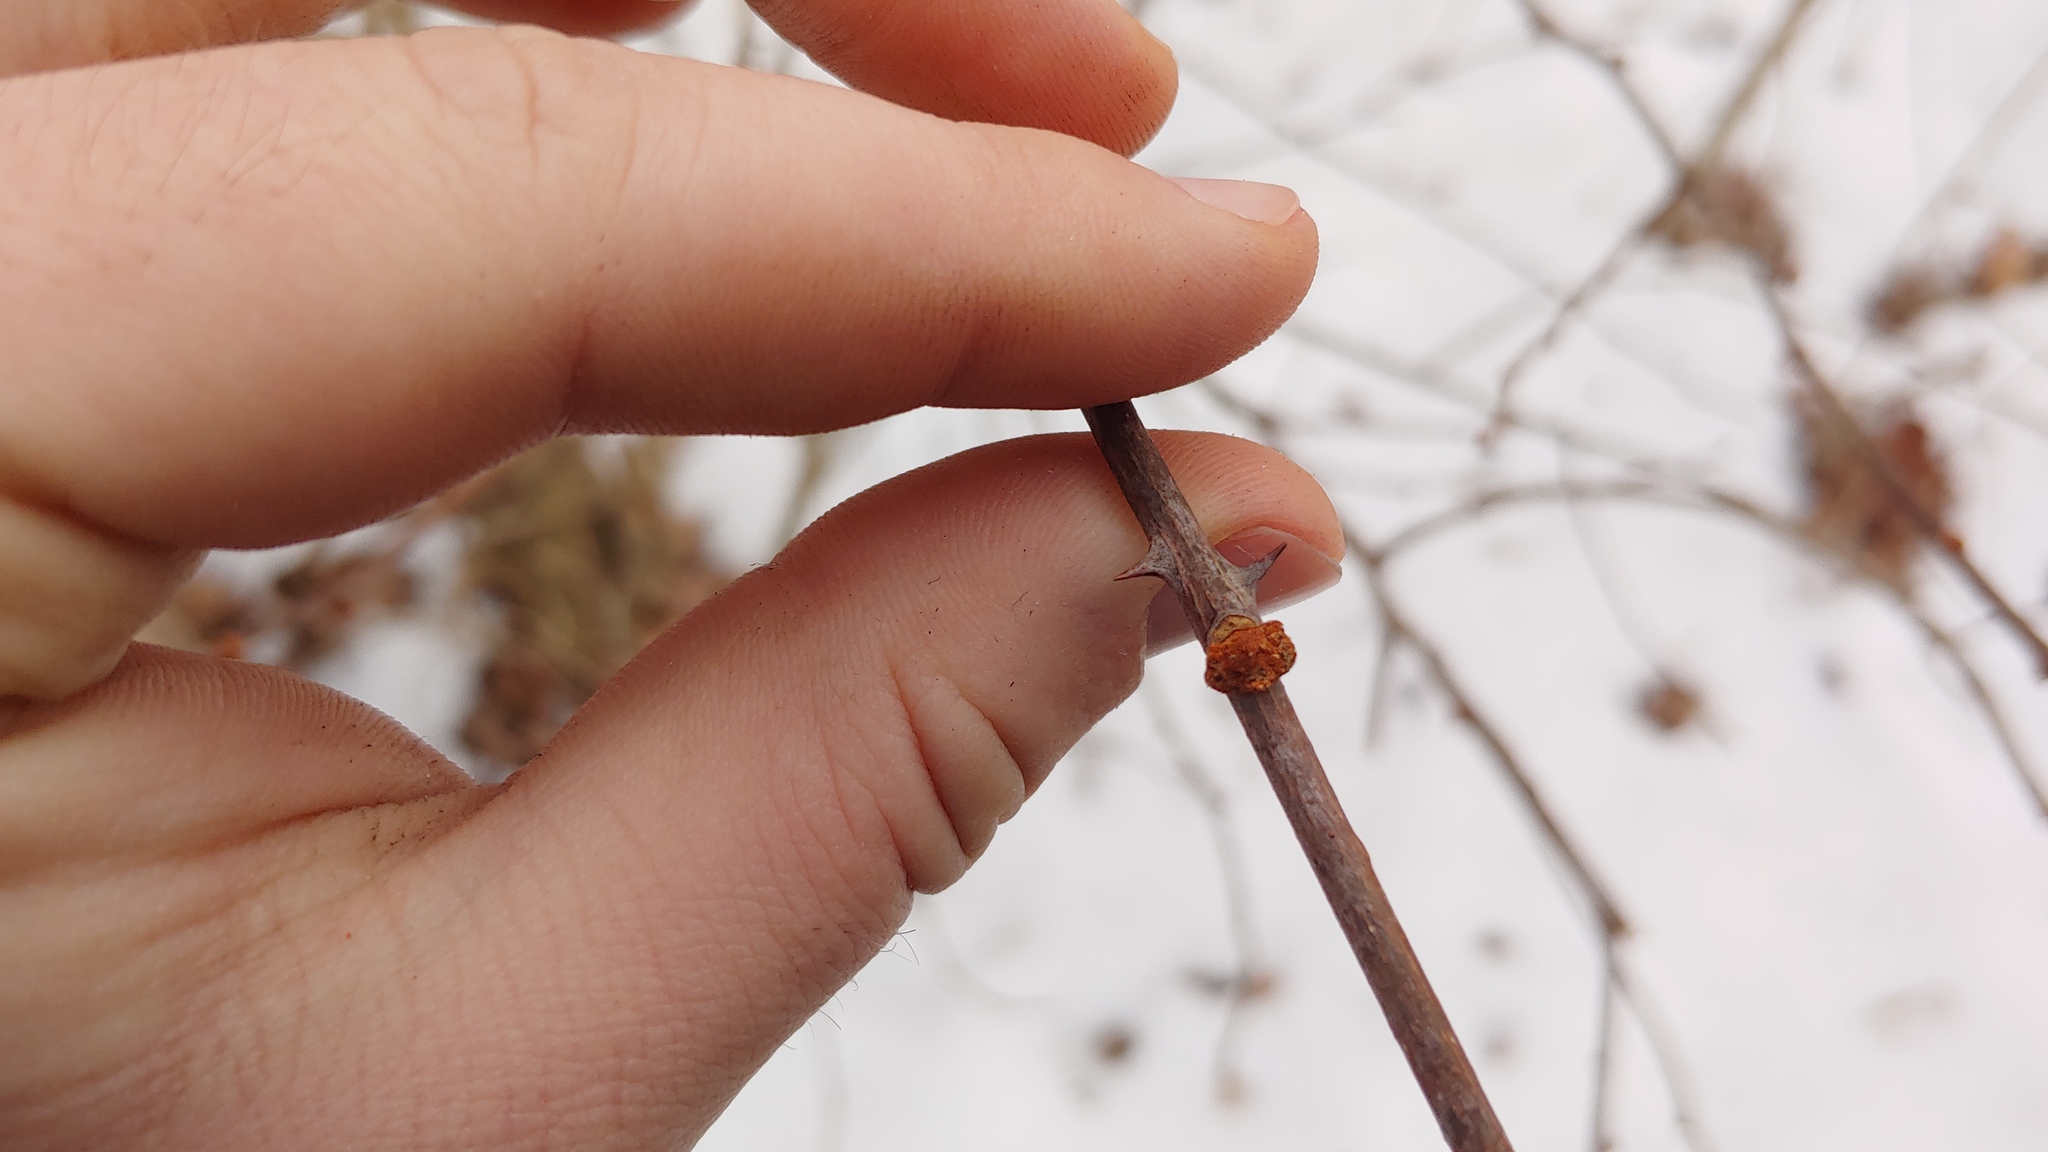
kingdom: Plantae
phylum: Tracheophyta
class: Magnoliopsida
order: Sapindales
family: Rutaceae
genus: Zanthoxylum
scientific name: Zanthoxylum americanum
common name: Northern prickly-ash
